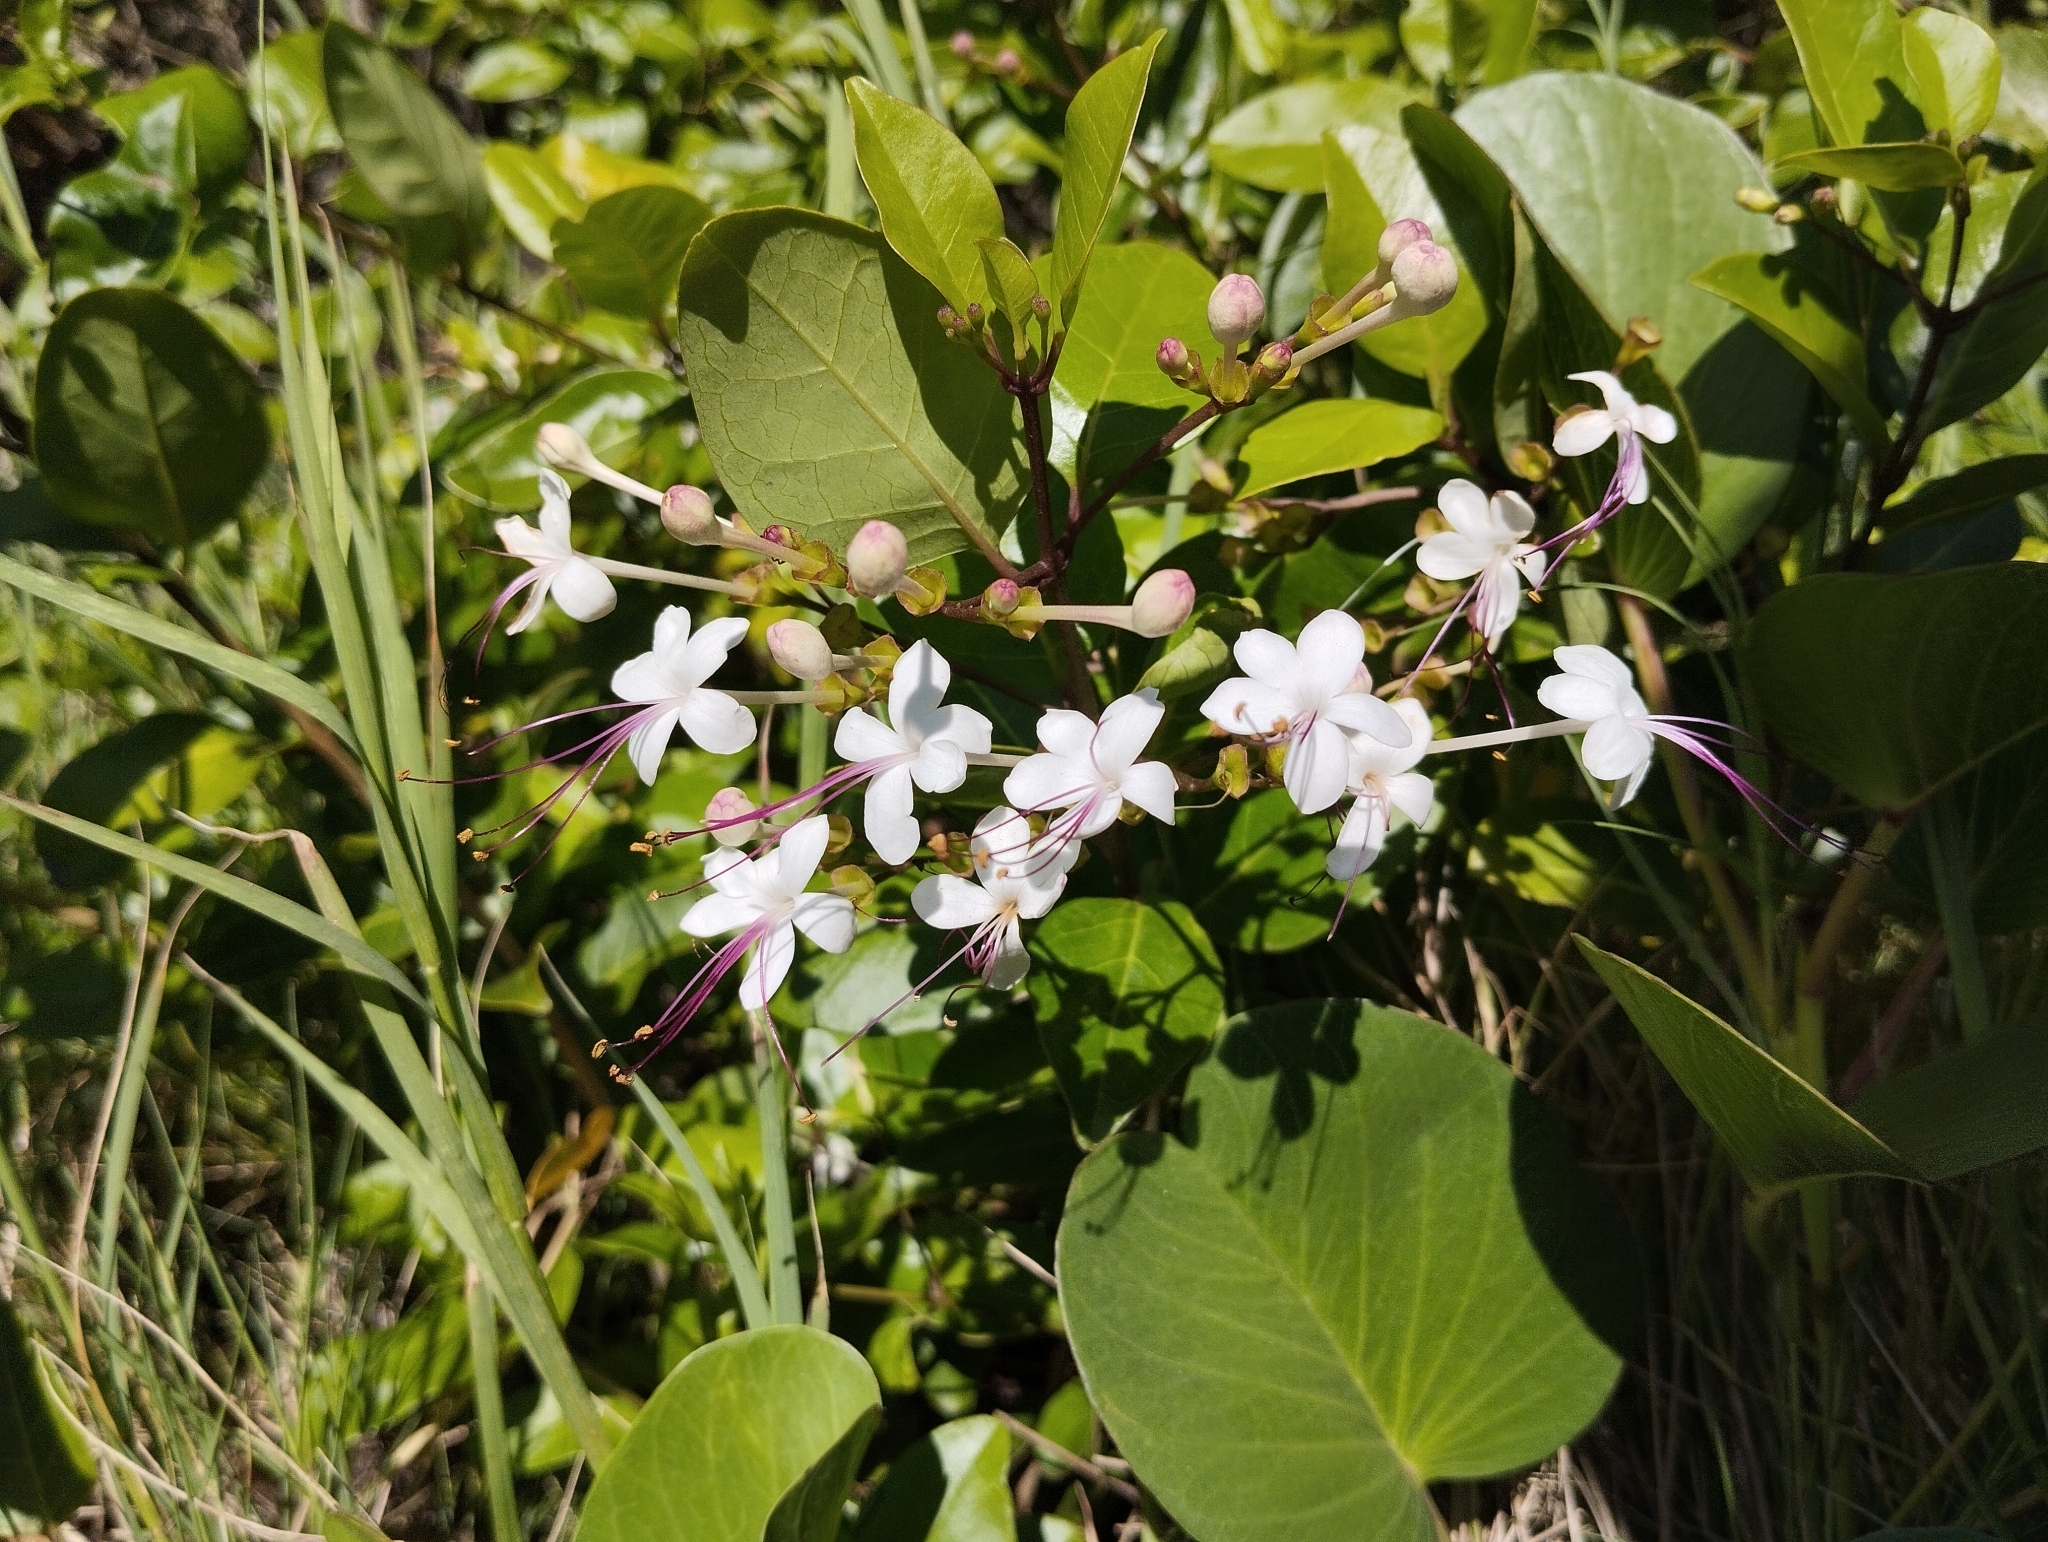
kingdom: Plantae
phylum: Tracheophyta
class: Magnoliopsida
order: Lamiales
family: Lamiaceae
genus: Volkameria
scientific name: Volkameria inermis
